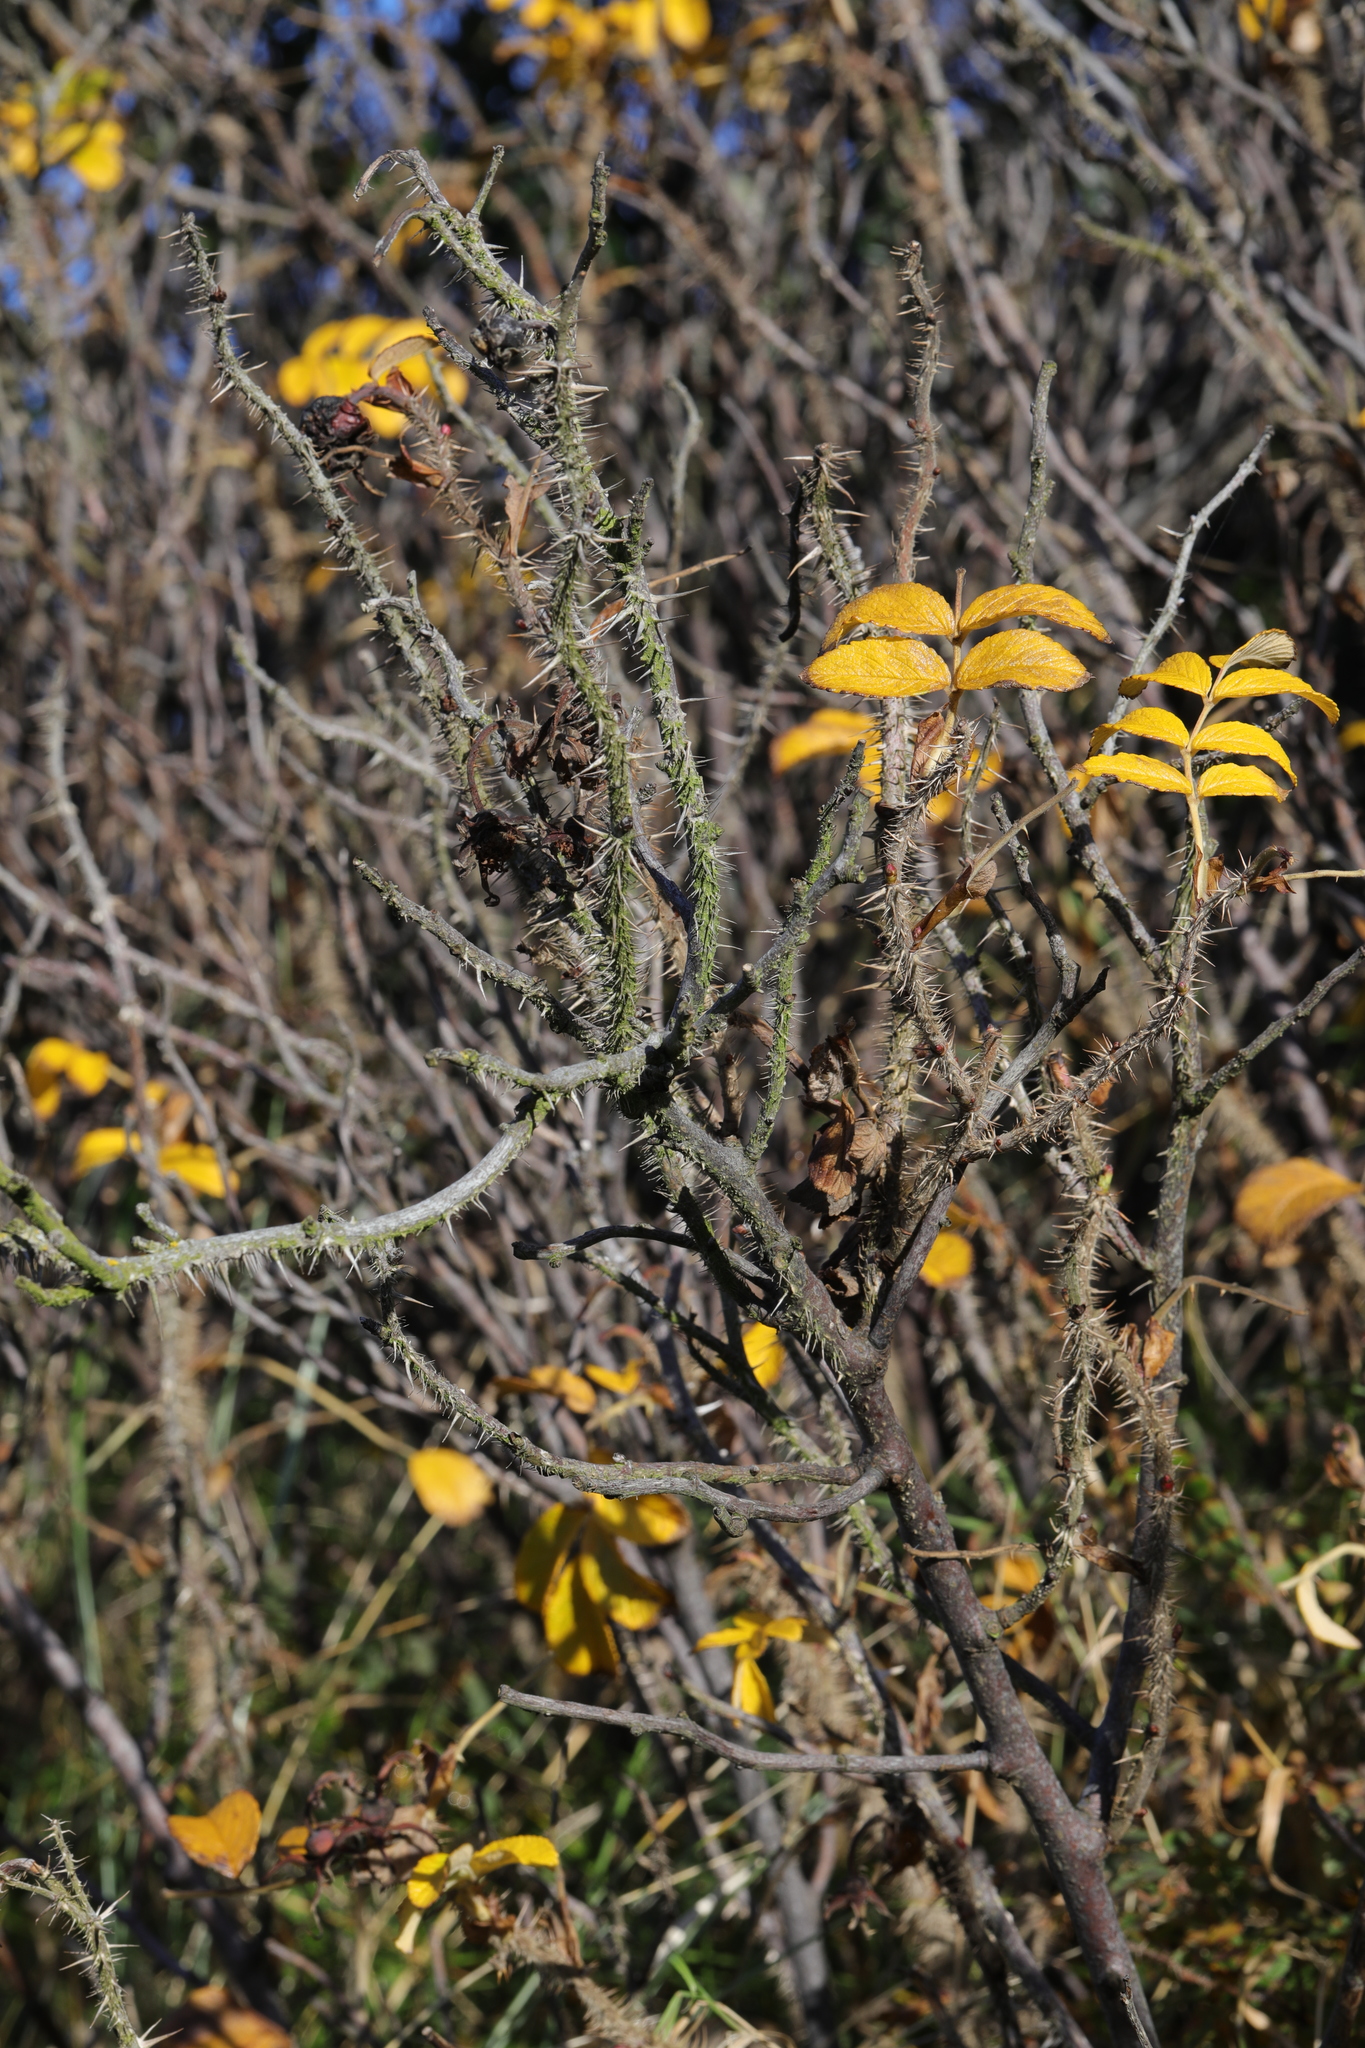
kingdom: Plantae
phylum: Tracheophyta
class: Magnoliopsida
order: Rosales
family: Rosaceae
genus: Rosa
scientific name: Rosa rugosa
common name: Japanese rose
